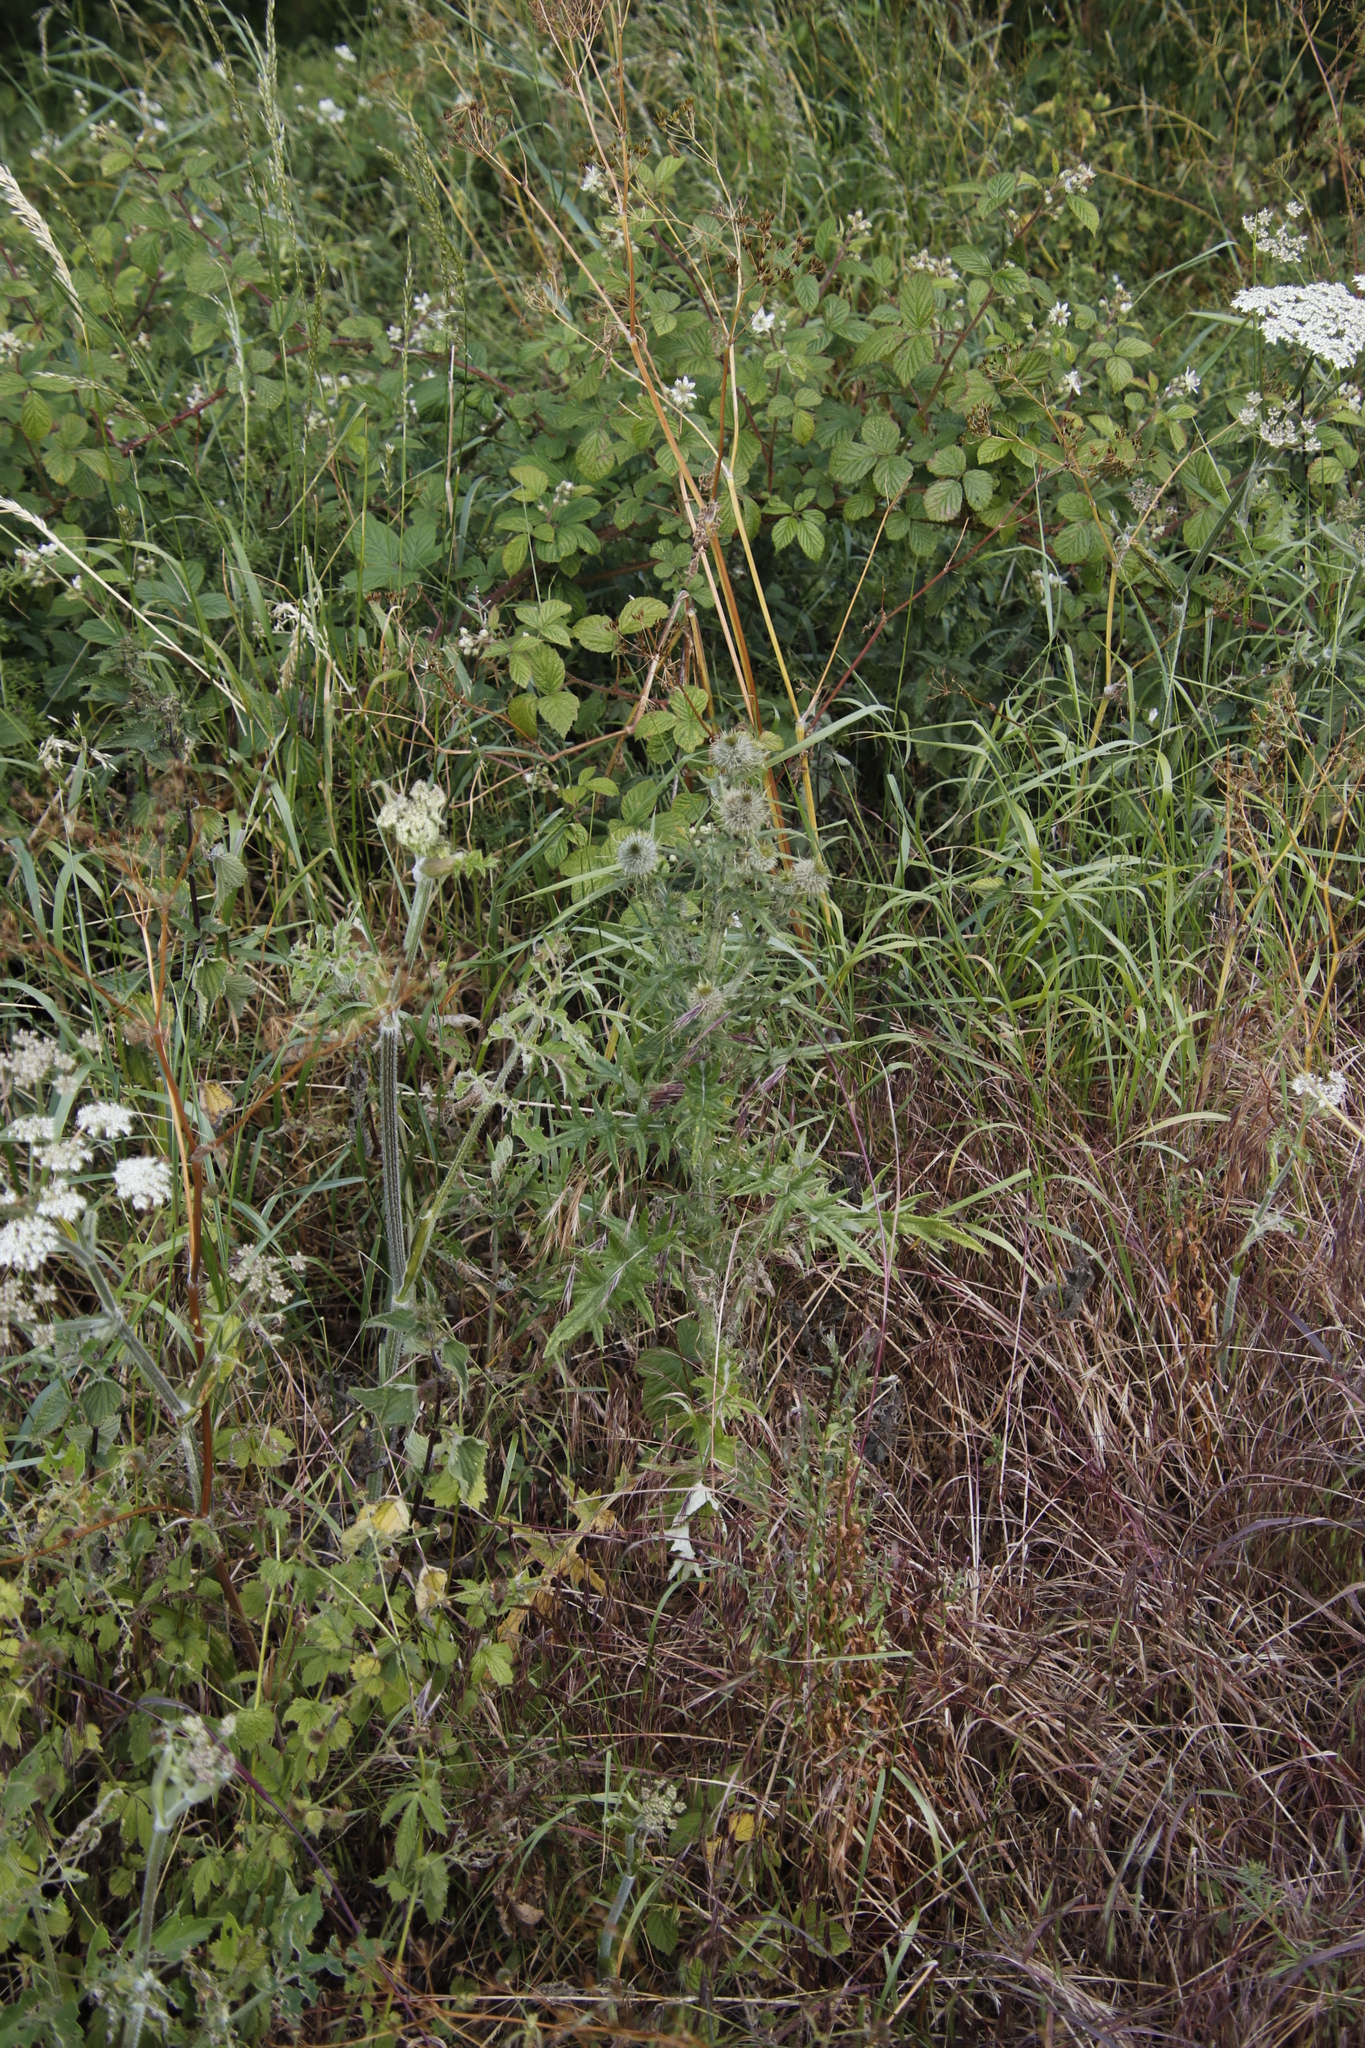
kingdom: Plantae
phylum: Tracheophyta
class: Magnoliopsida
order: Asterales
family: Asteraceae
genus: Cirsium
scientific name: Cirsium vulgare
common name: Bull thistle
